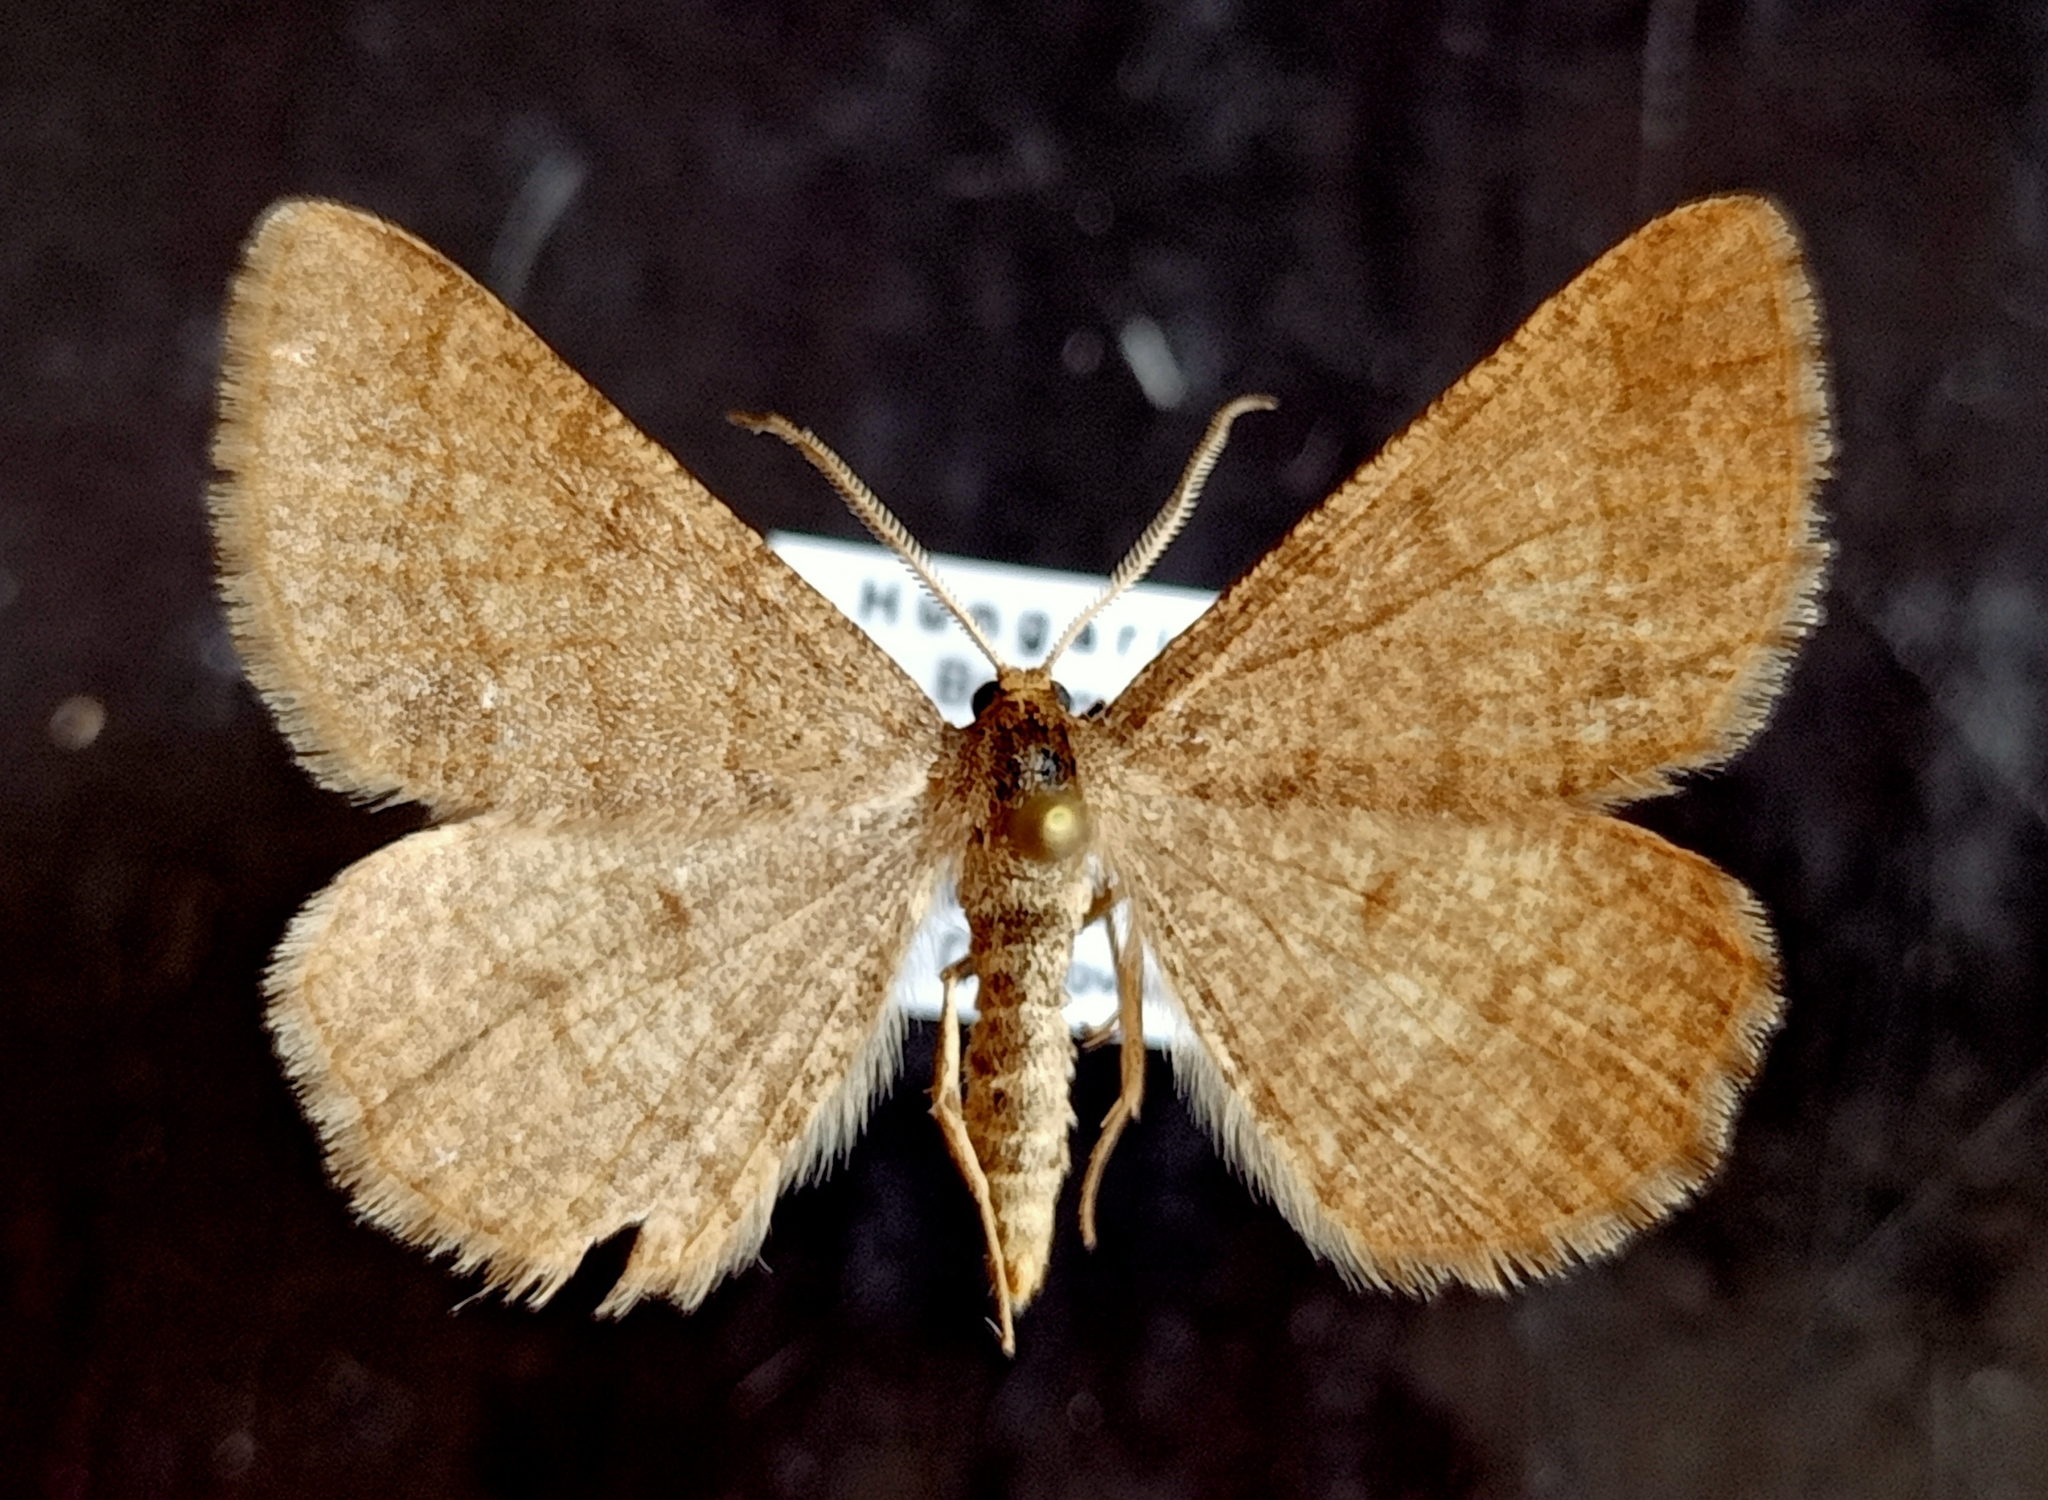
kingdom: Animalia
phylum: Arthropoda
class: Insecta
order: Lepidoptera
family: Geometridae
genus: Tephrina
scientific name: Tephrina murinaria
